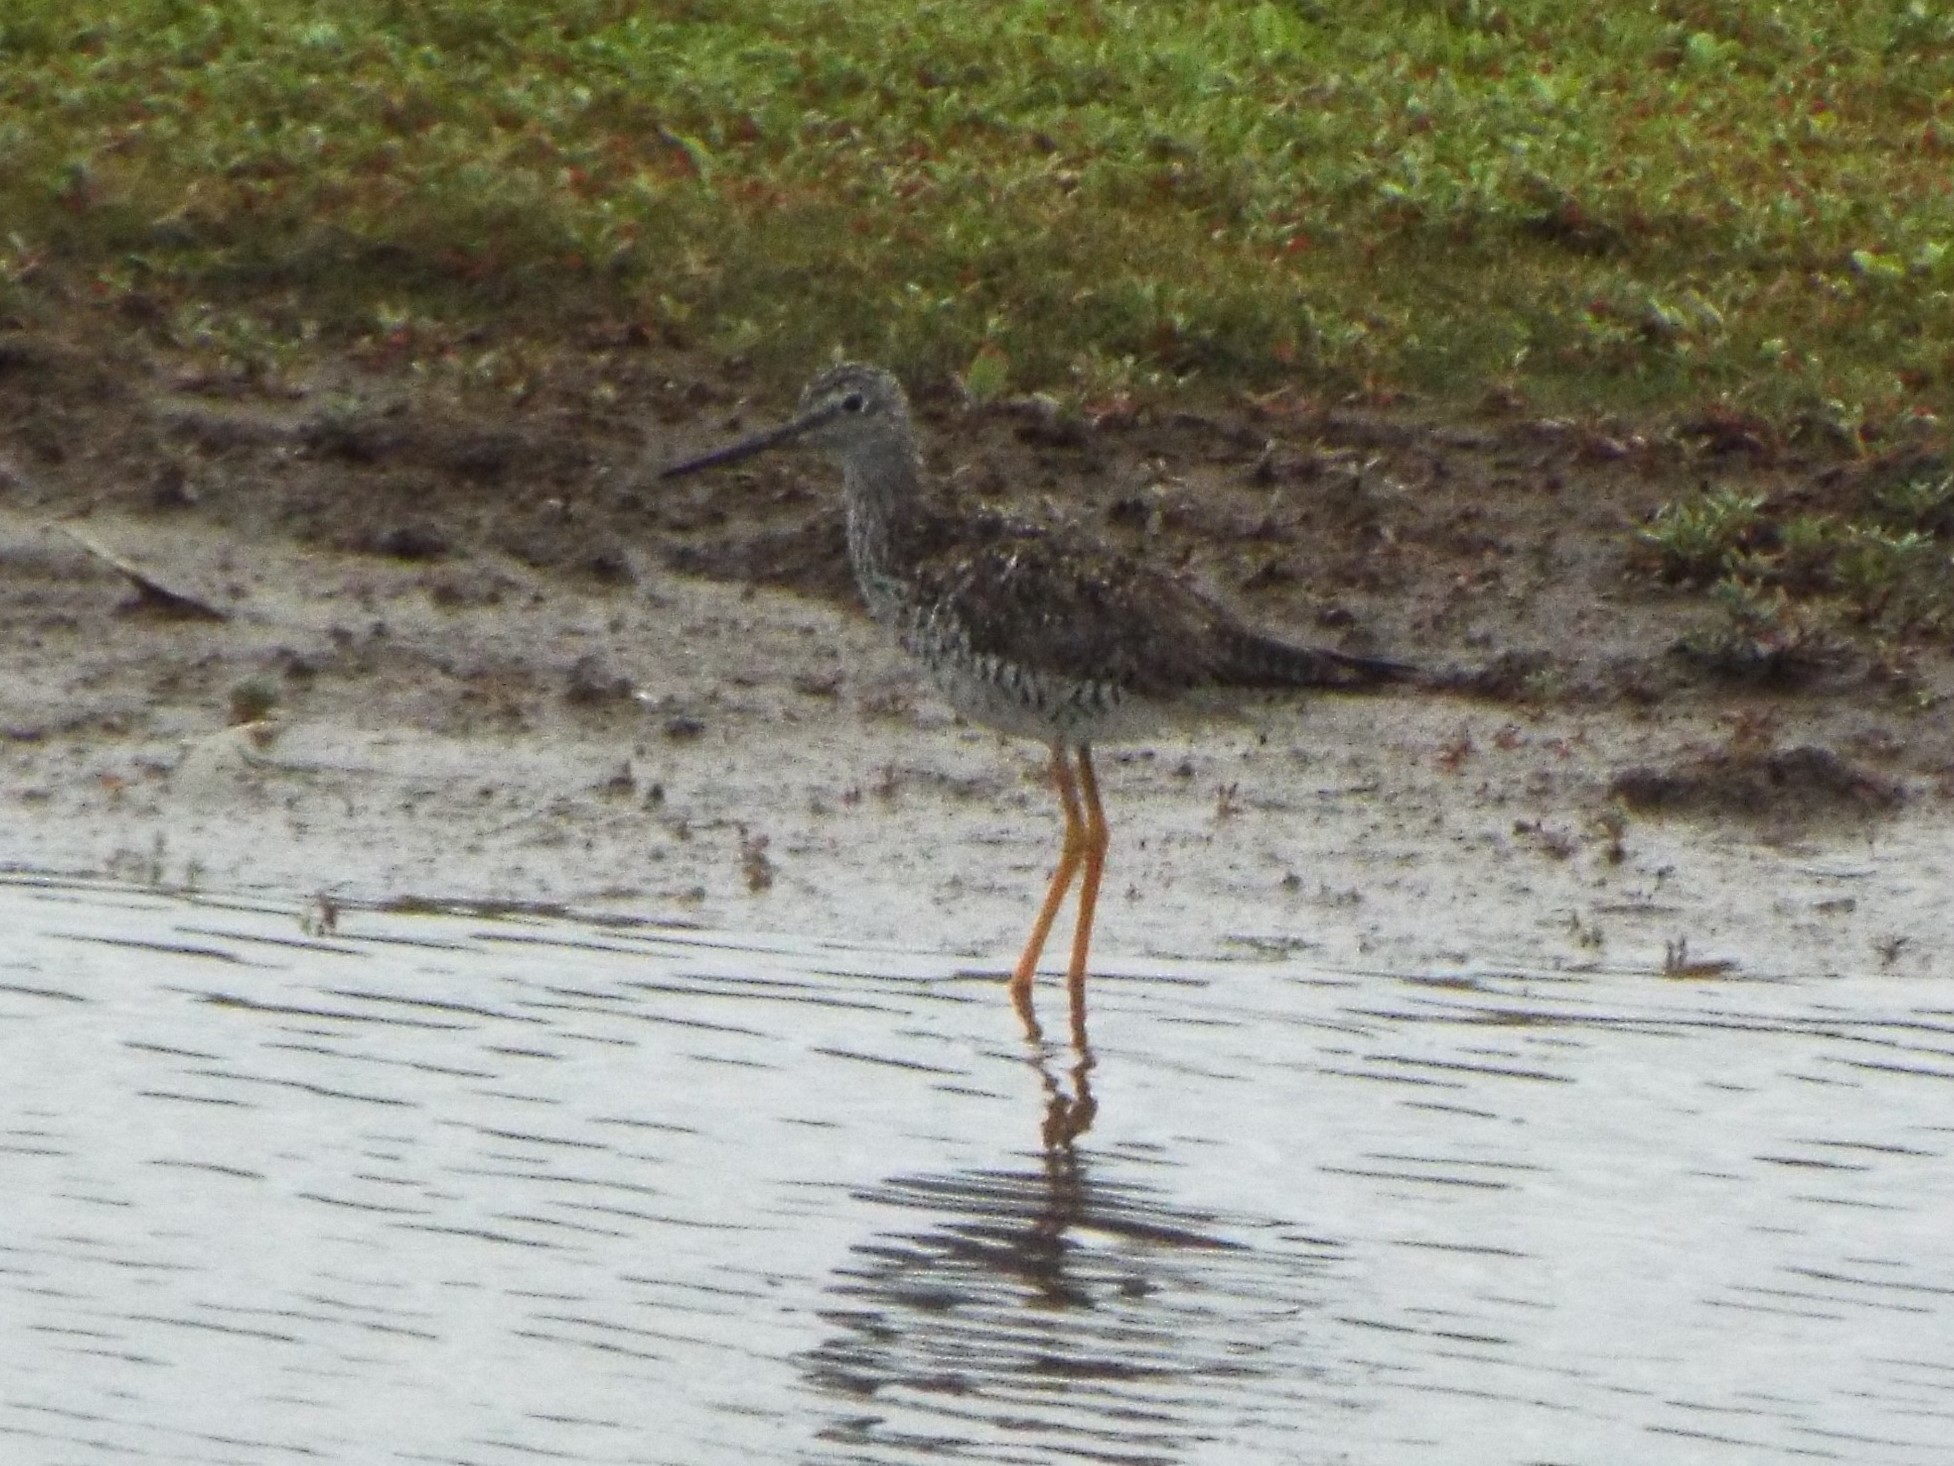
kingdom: Animalia
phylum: Chordata
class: Aves
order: Charadriiformes
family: Scolopacidae
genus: Tringa
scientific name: Tringa melanoleuca
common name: Greater yellowlegs
